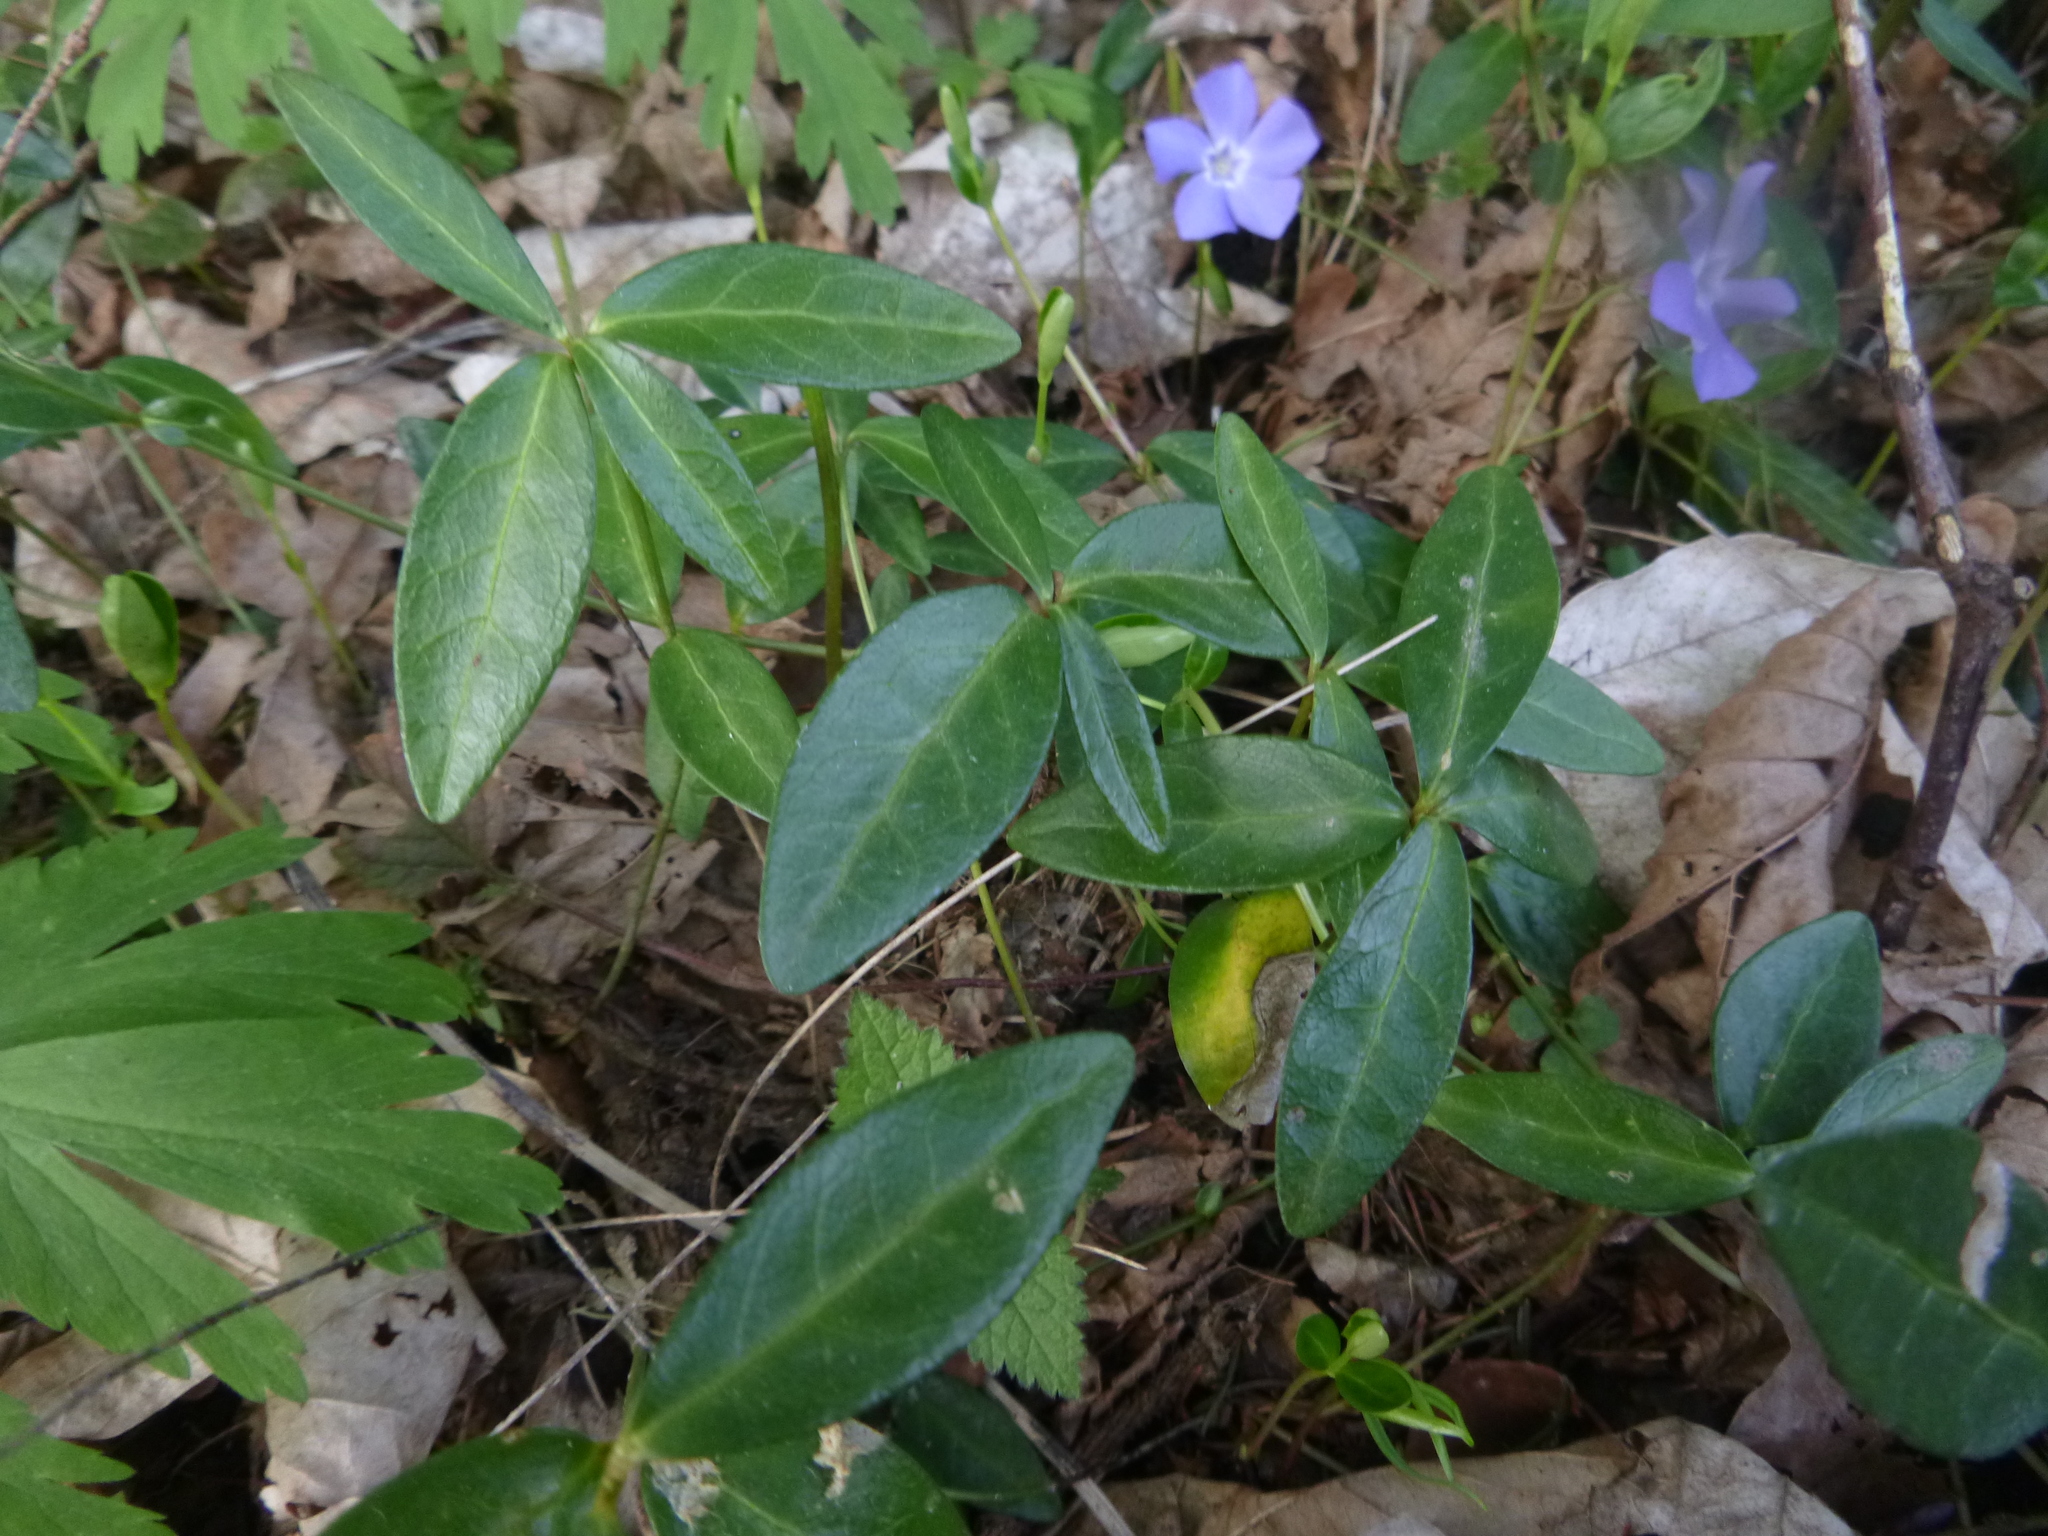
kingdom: Plantae
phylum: Tracheophyta
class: Magnoliopsida
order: Gentianales
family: Apocynaceae
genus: Vinca
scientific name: Vinca minor
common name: Lesser periwinkle
